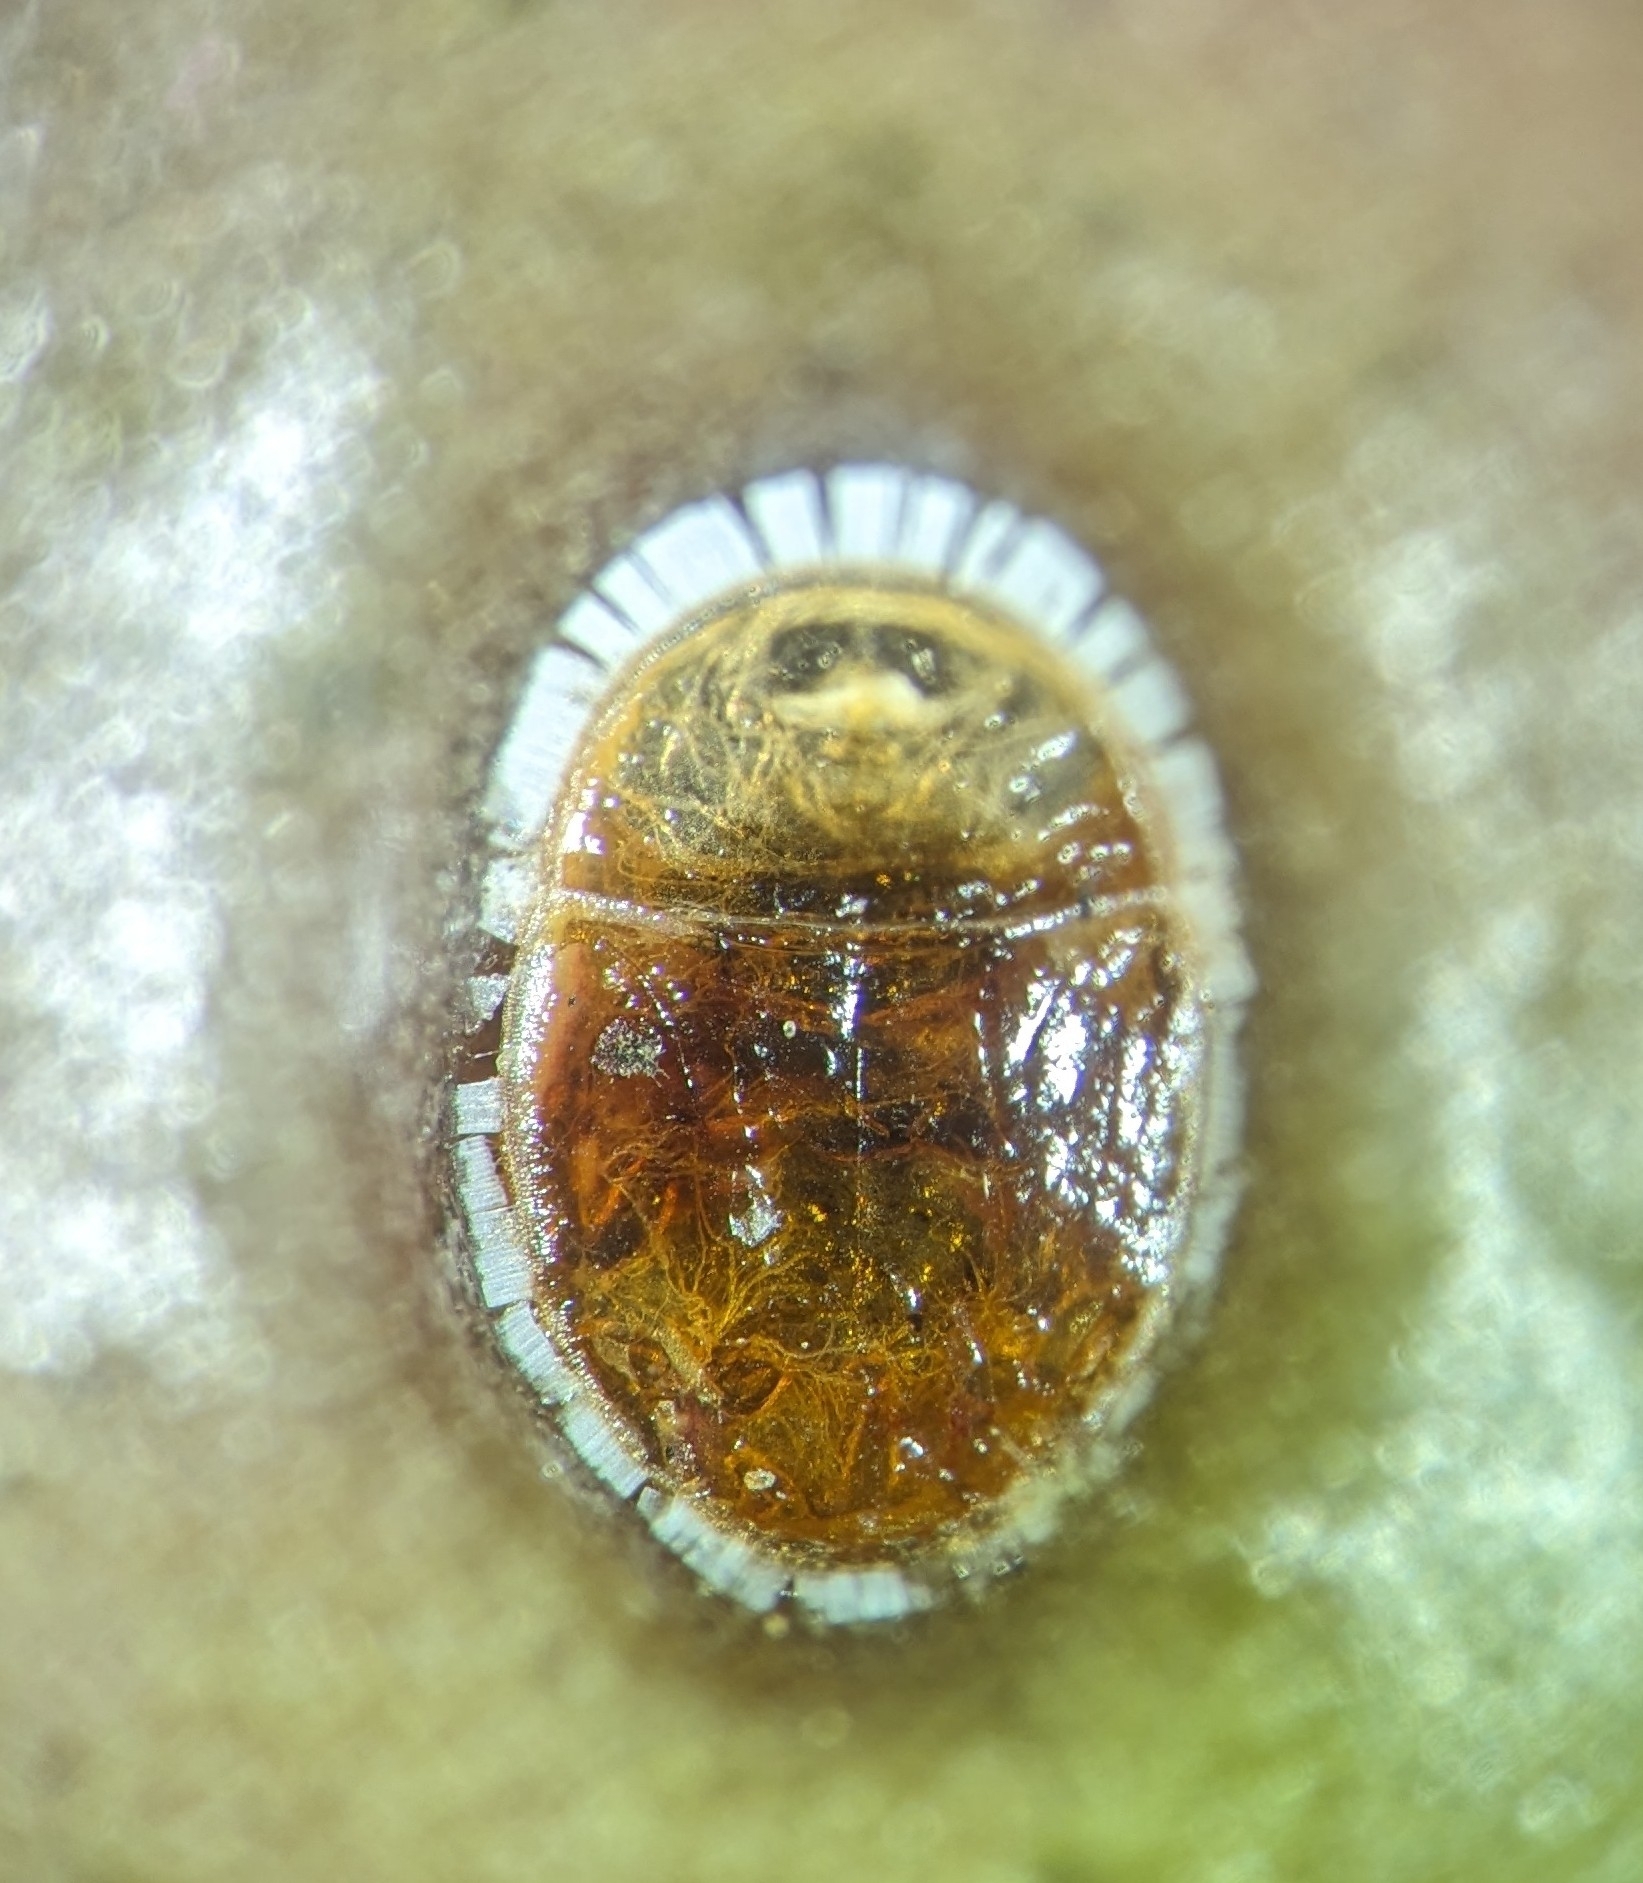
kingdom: Animalia
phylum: Arthropoda
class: Insecta
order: Hemiptera
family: Triozidae
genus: Trioza
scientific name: Trioza adventicia
